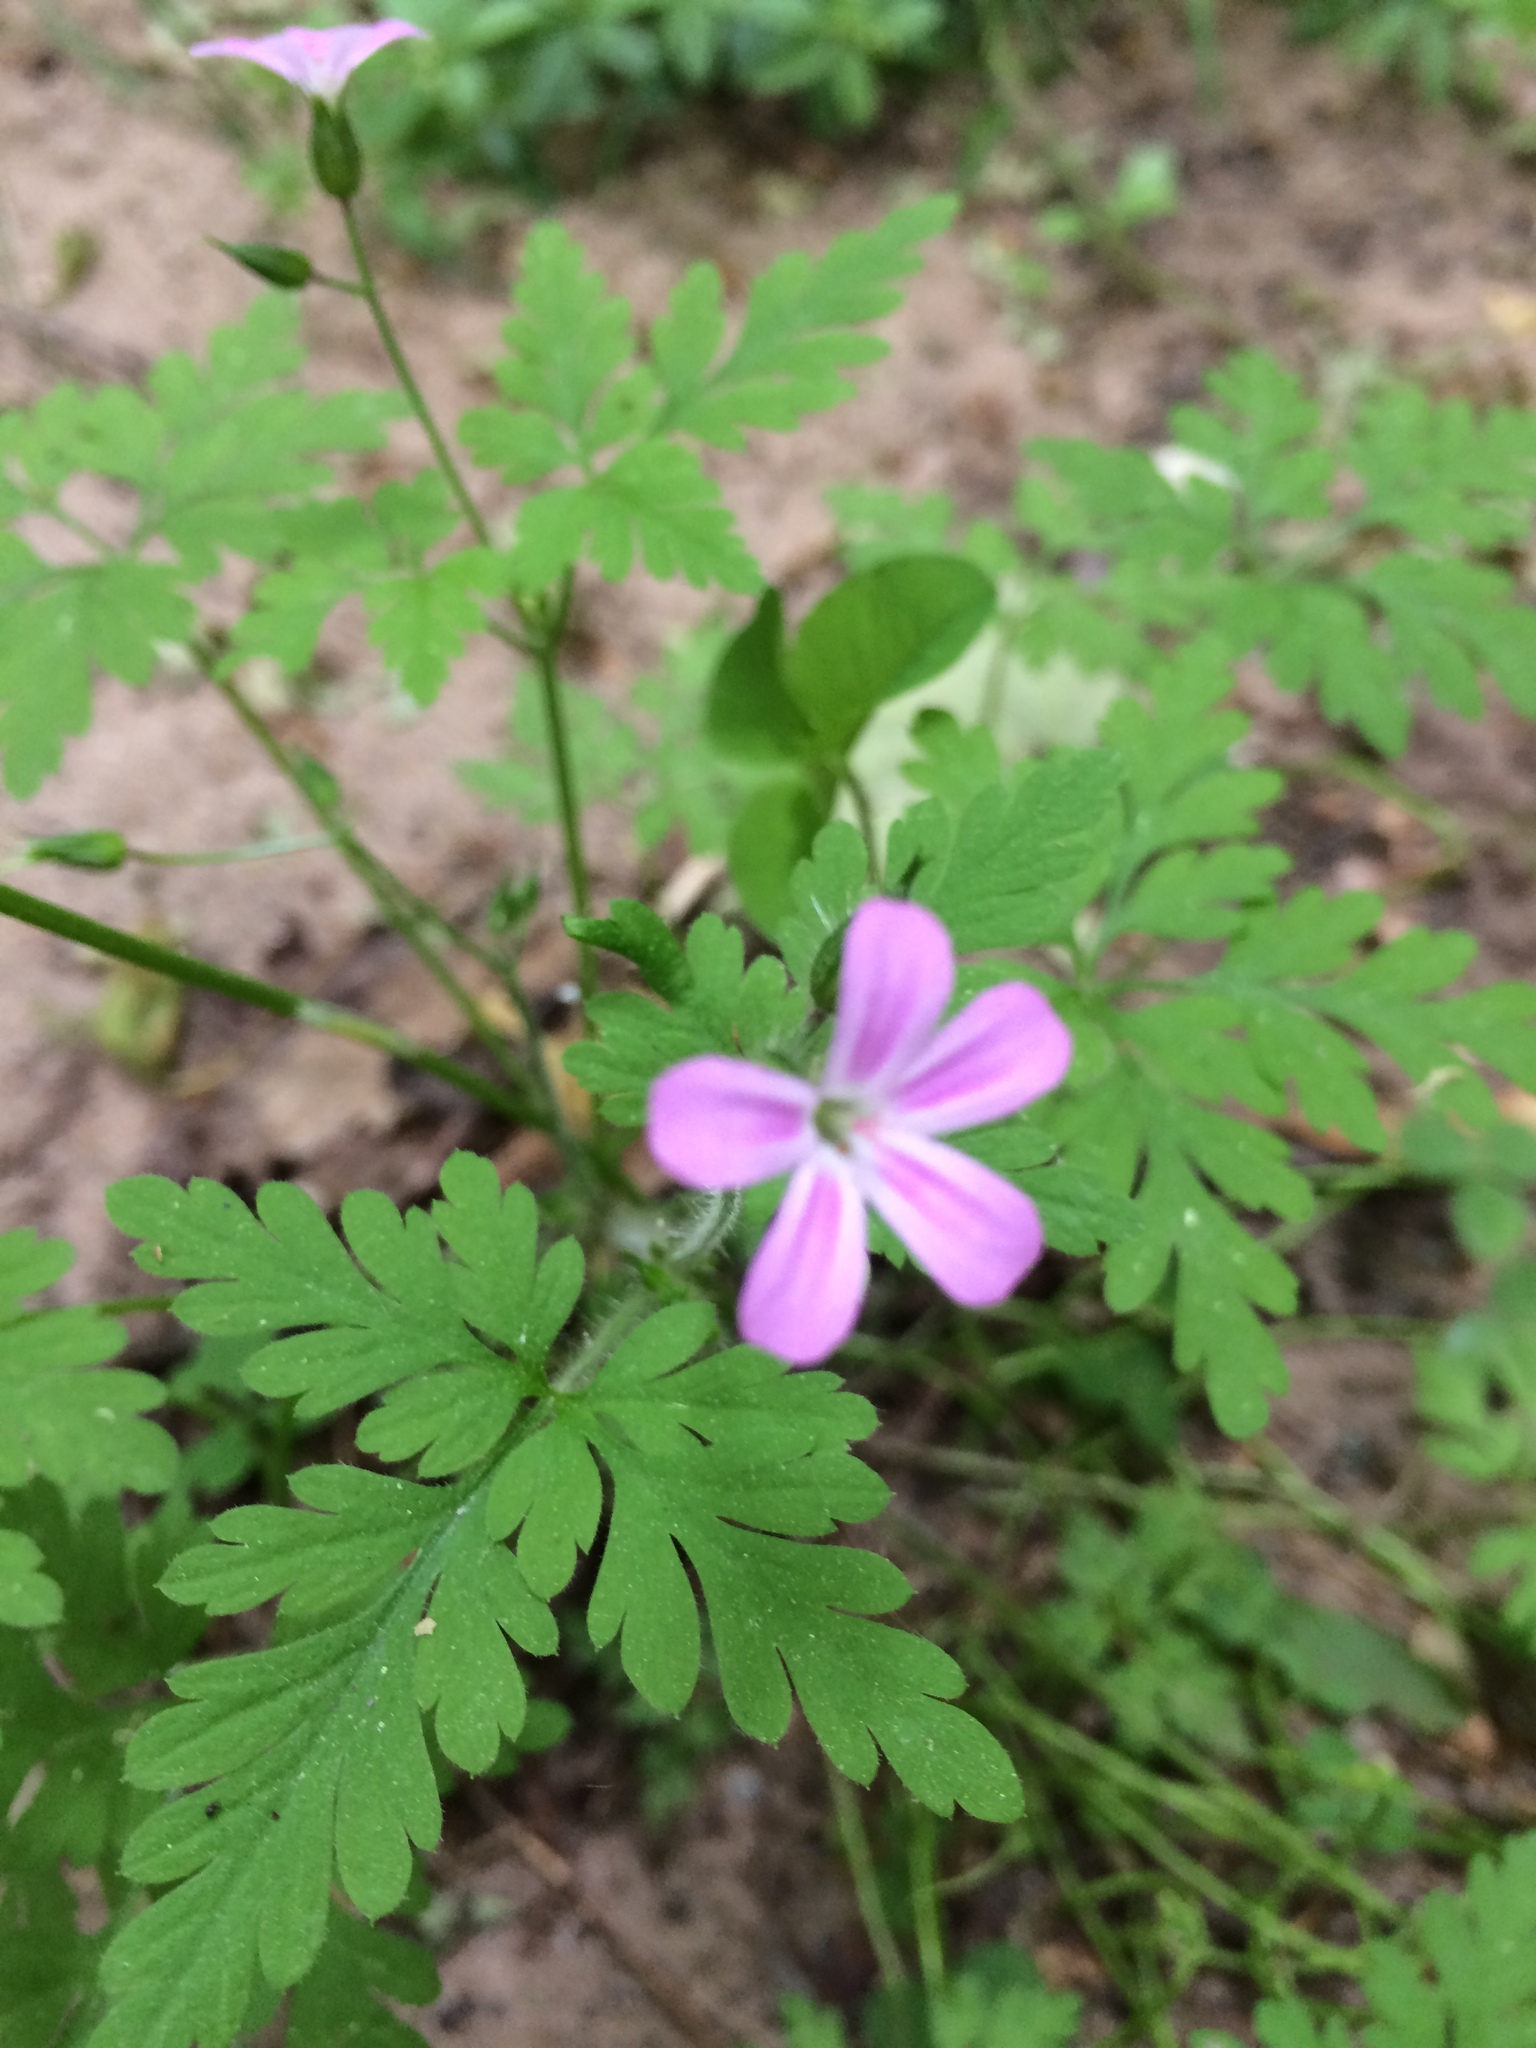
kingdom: Plantae
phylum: Tracheophyta
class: Magnoliopsida
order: Geraniales
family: Geraniaceae
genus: Geranium
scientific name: Geranium robertianum
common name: Herb-robert
